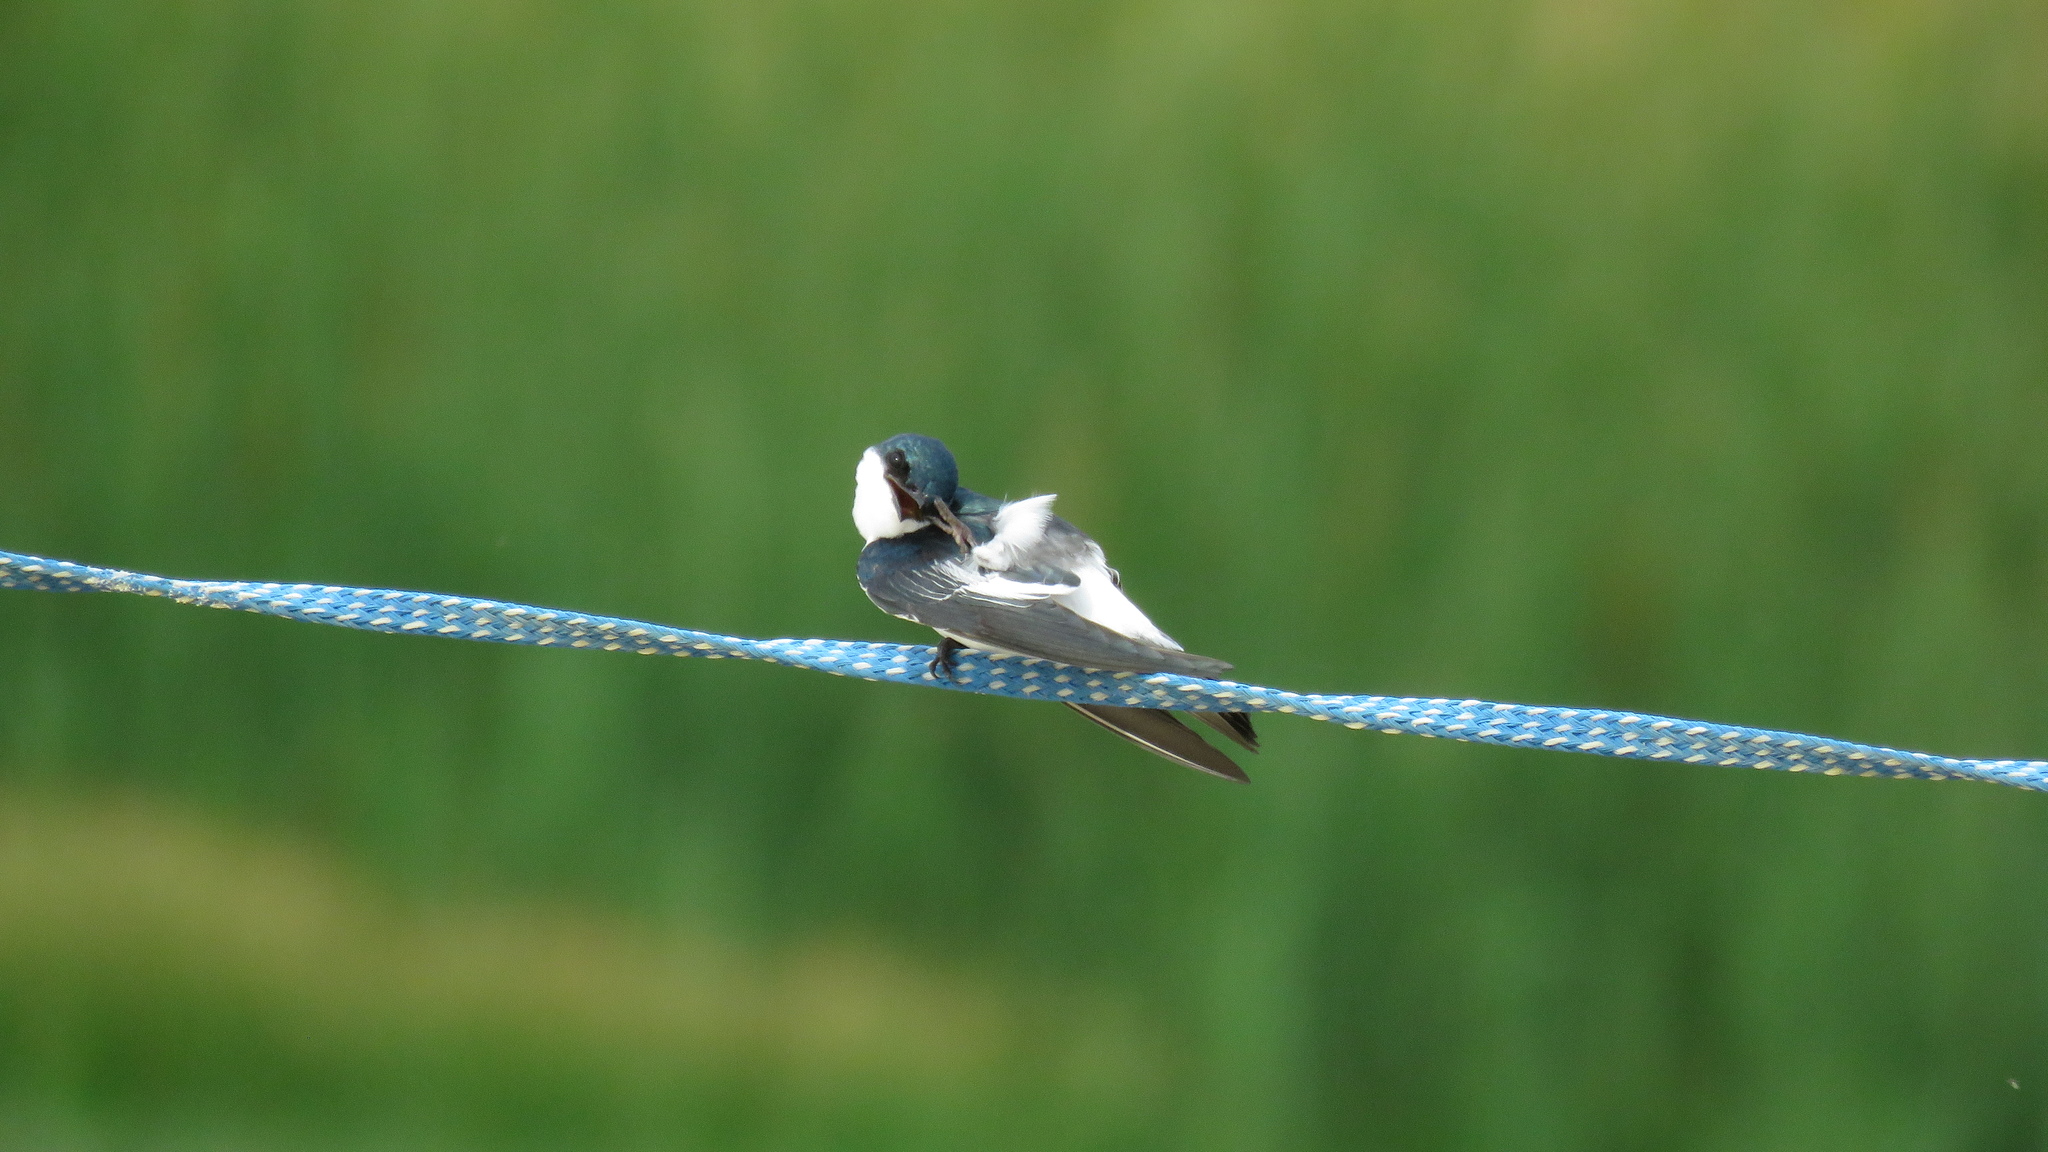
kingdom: Animalia
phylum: Chordata
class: Aves
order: Passeriformes
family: Hirundinidae
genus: Tachycineta
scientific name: Tachycineta albiventer
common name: White-winged swallow
